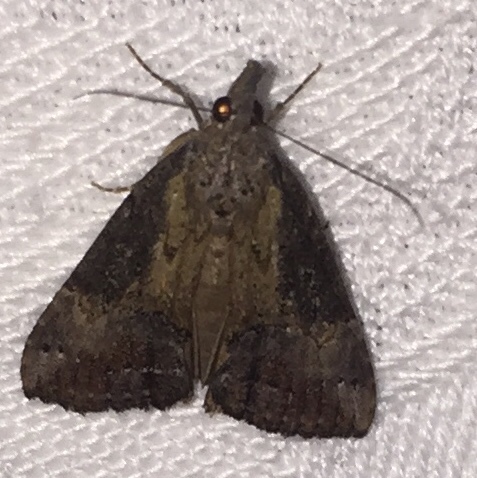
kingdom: Animalia
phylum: Arthropoda
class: Insecta
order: Lepidoptera
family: Erebidae
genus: Hypena
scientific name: Hypena scabra
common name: Green cloverworm
